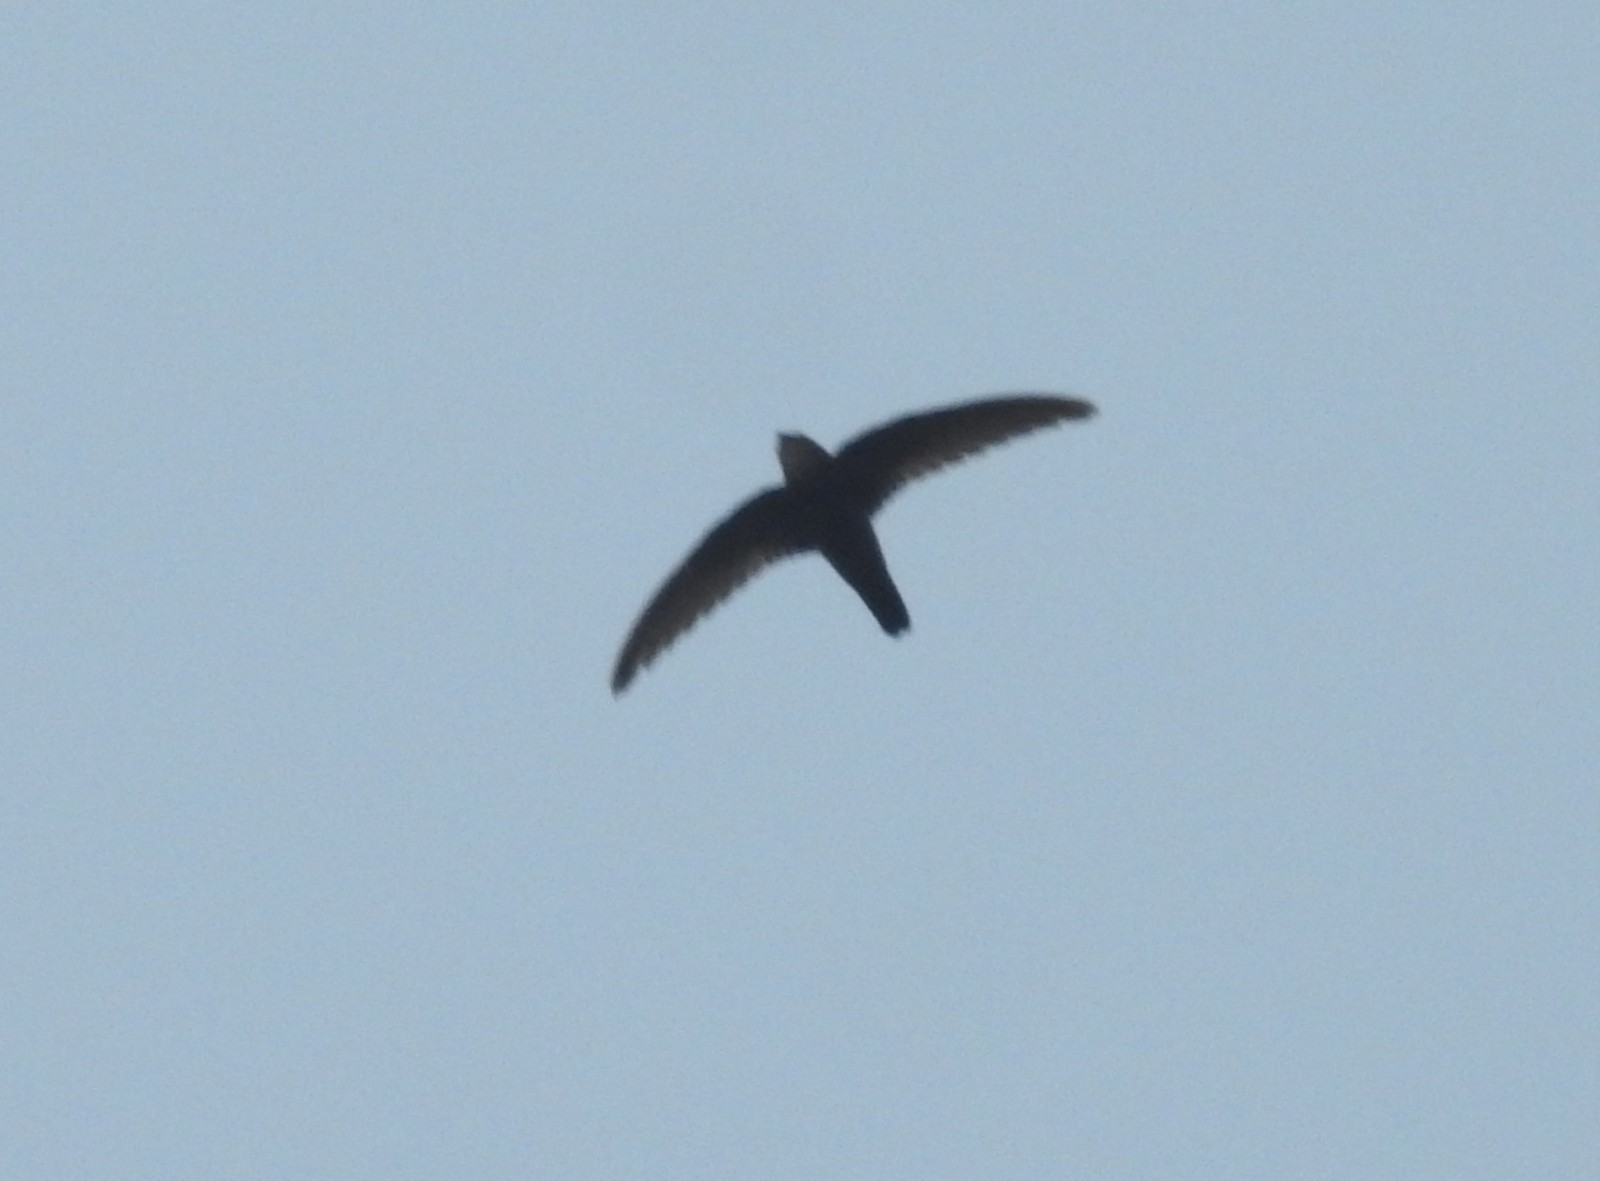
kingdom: Animalia
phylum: Chordata
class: Aves
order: Apodiformes
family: Apodidae
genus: Apus
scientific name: Apus affinis
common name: Little swift
